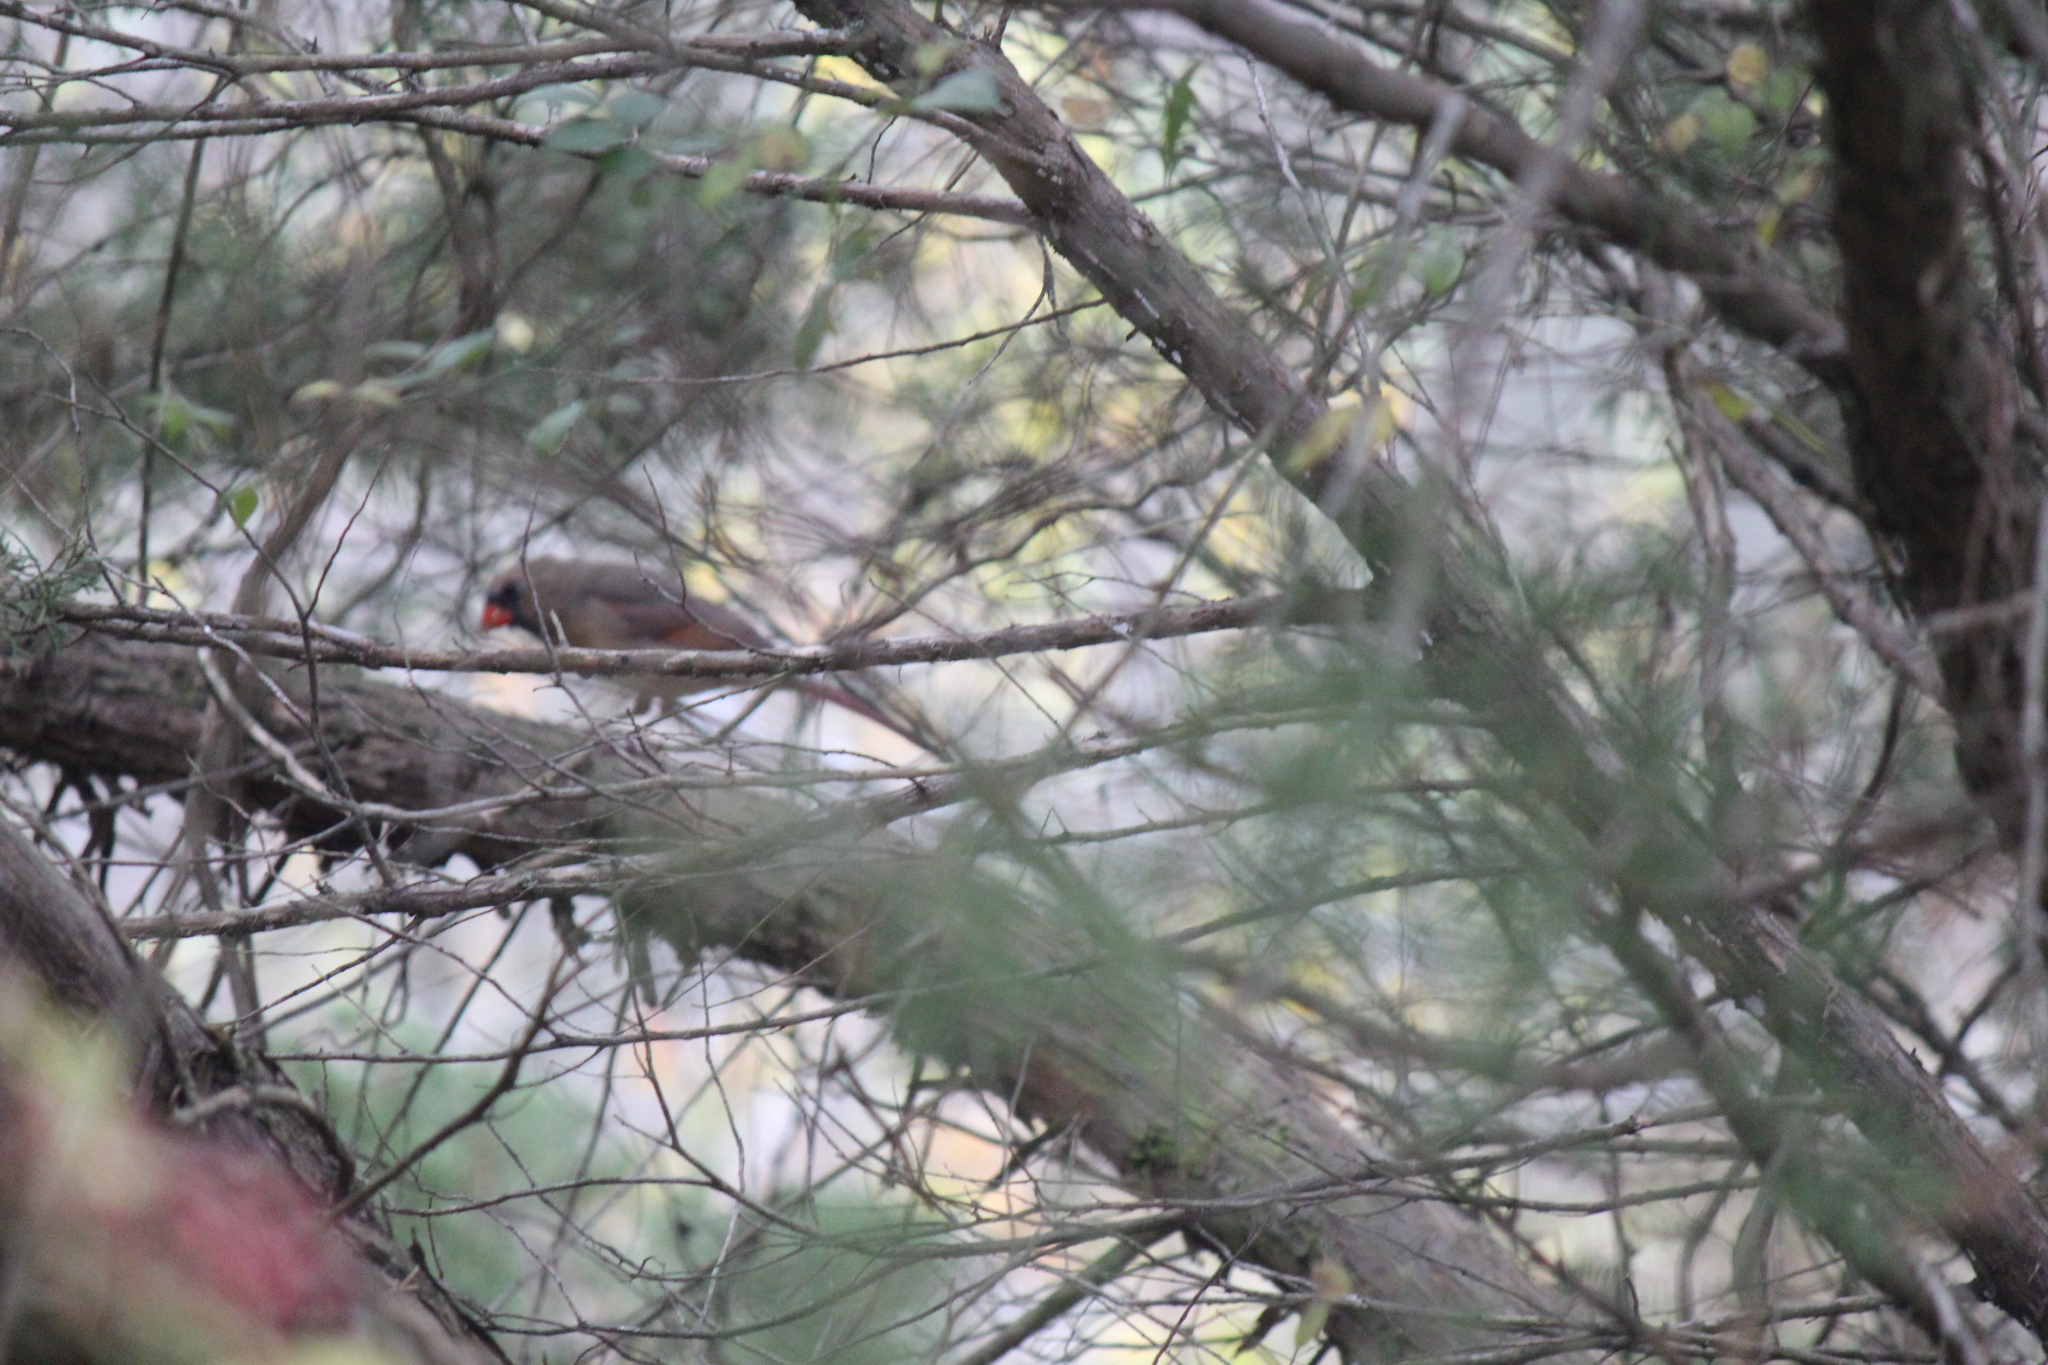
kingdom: Animalia
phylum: Chordata
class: Aves
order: Passeriformes
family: Cardinalidae
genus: Cardinalis
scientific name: Cardinalis cardinalis
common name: Northern cardinal
